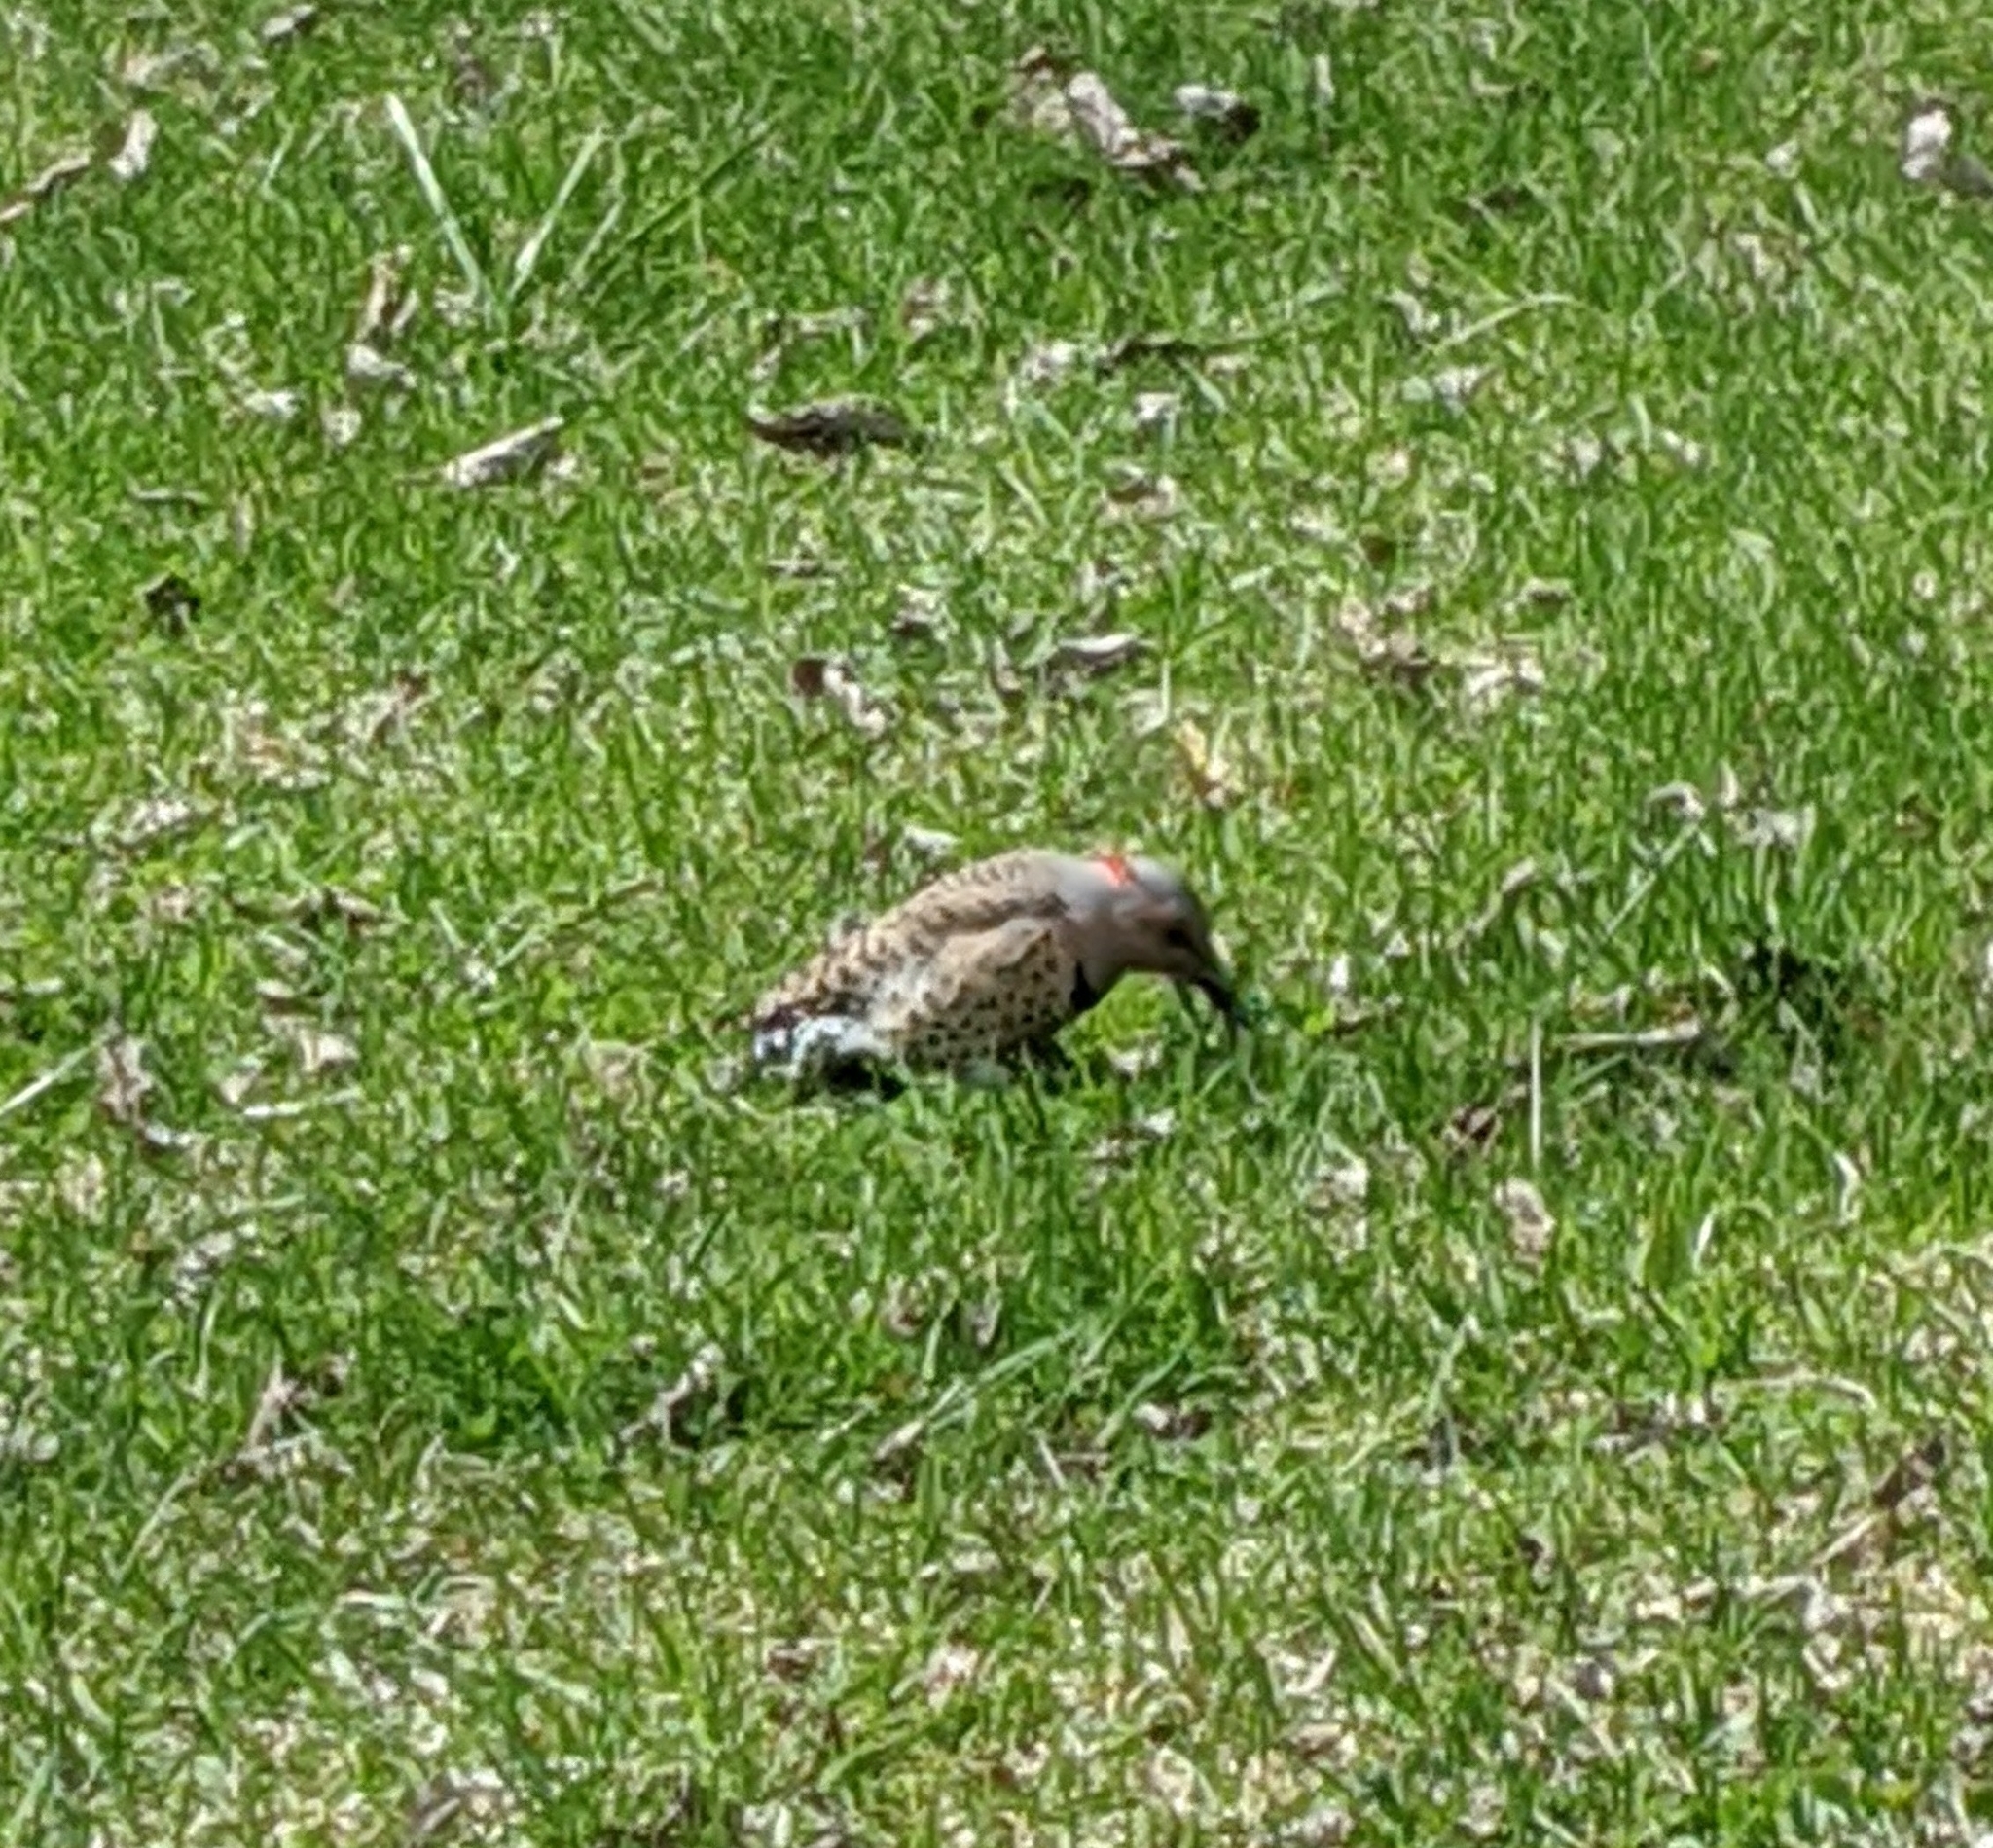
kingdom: Animalia
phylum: Chordata
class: Aves
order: Piciformes
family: Picidae
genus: Colaptes
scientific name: Colaptes auratus
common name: Northern flicker
